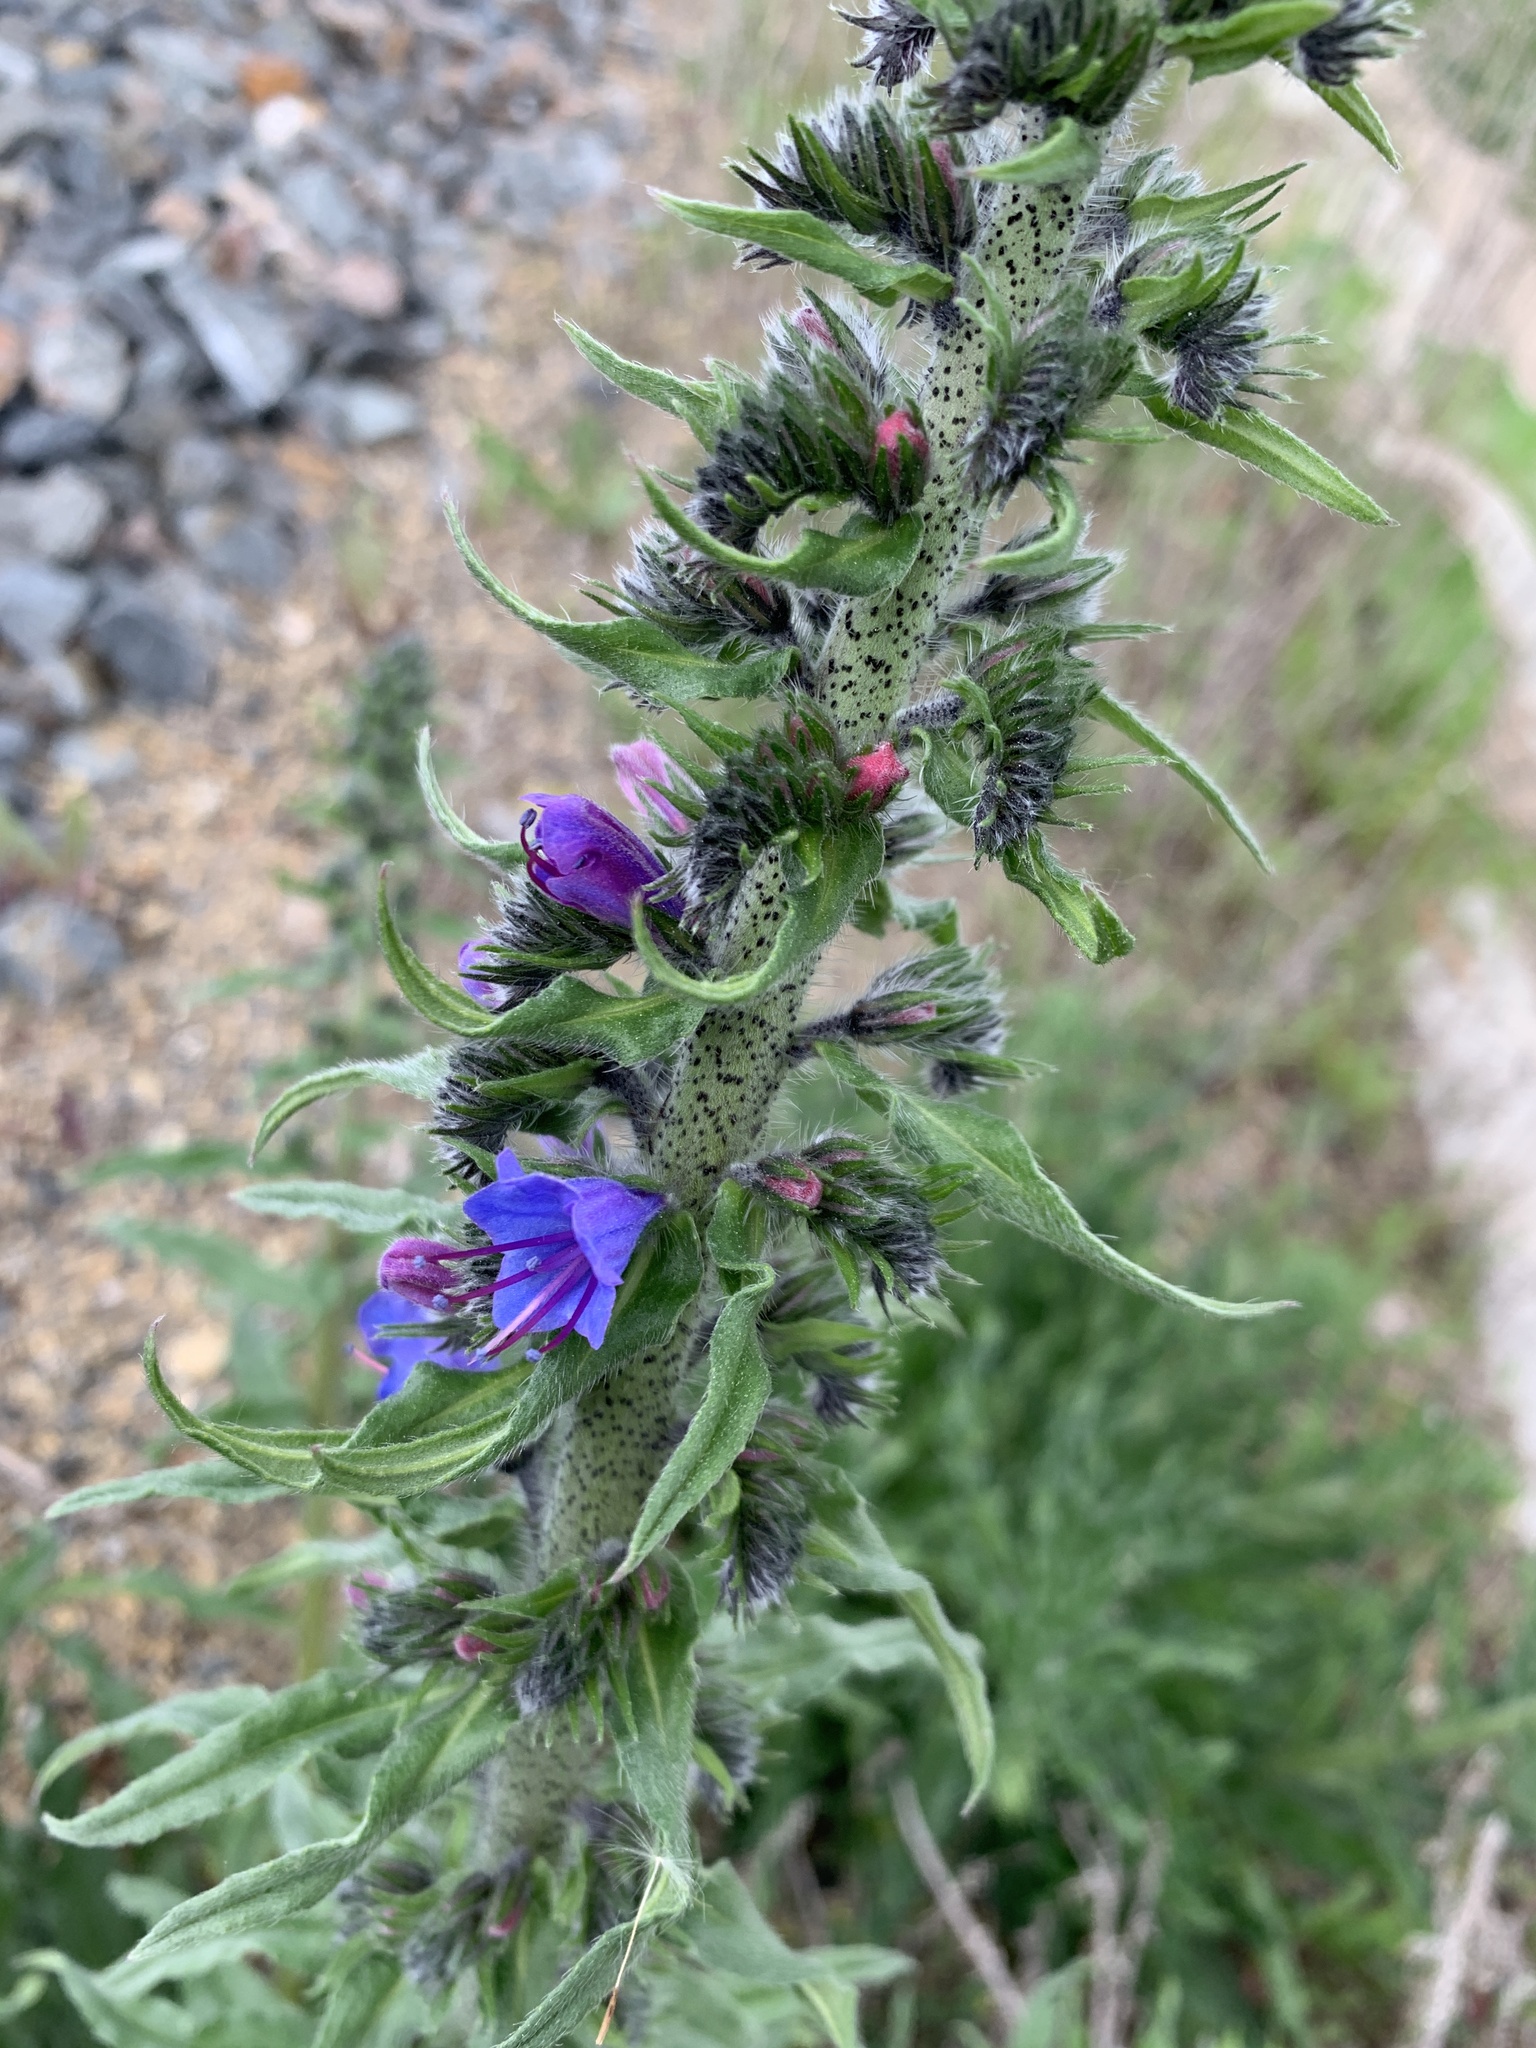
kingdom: Plantae
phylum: Tracheophyta
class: Magnoliopsida
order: Boraginales
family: Boraginaceae
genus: Echium
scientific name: Echium vulgare
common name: Common viper's bugloss
